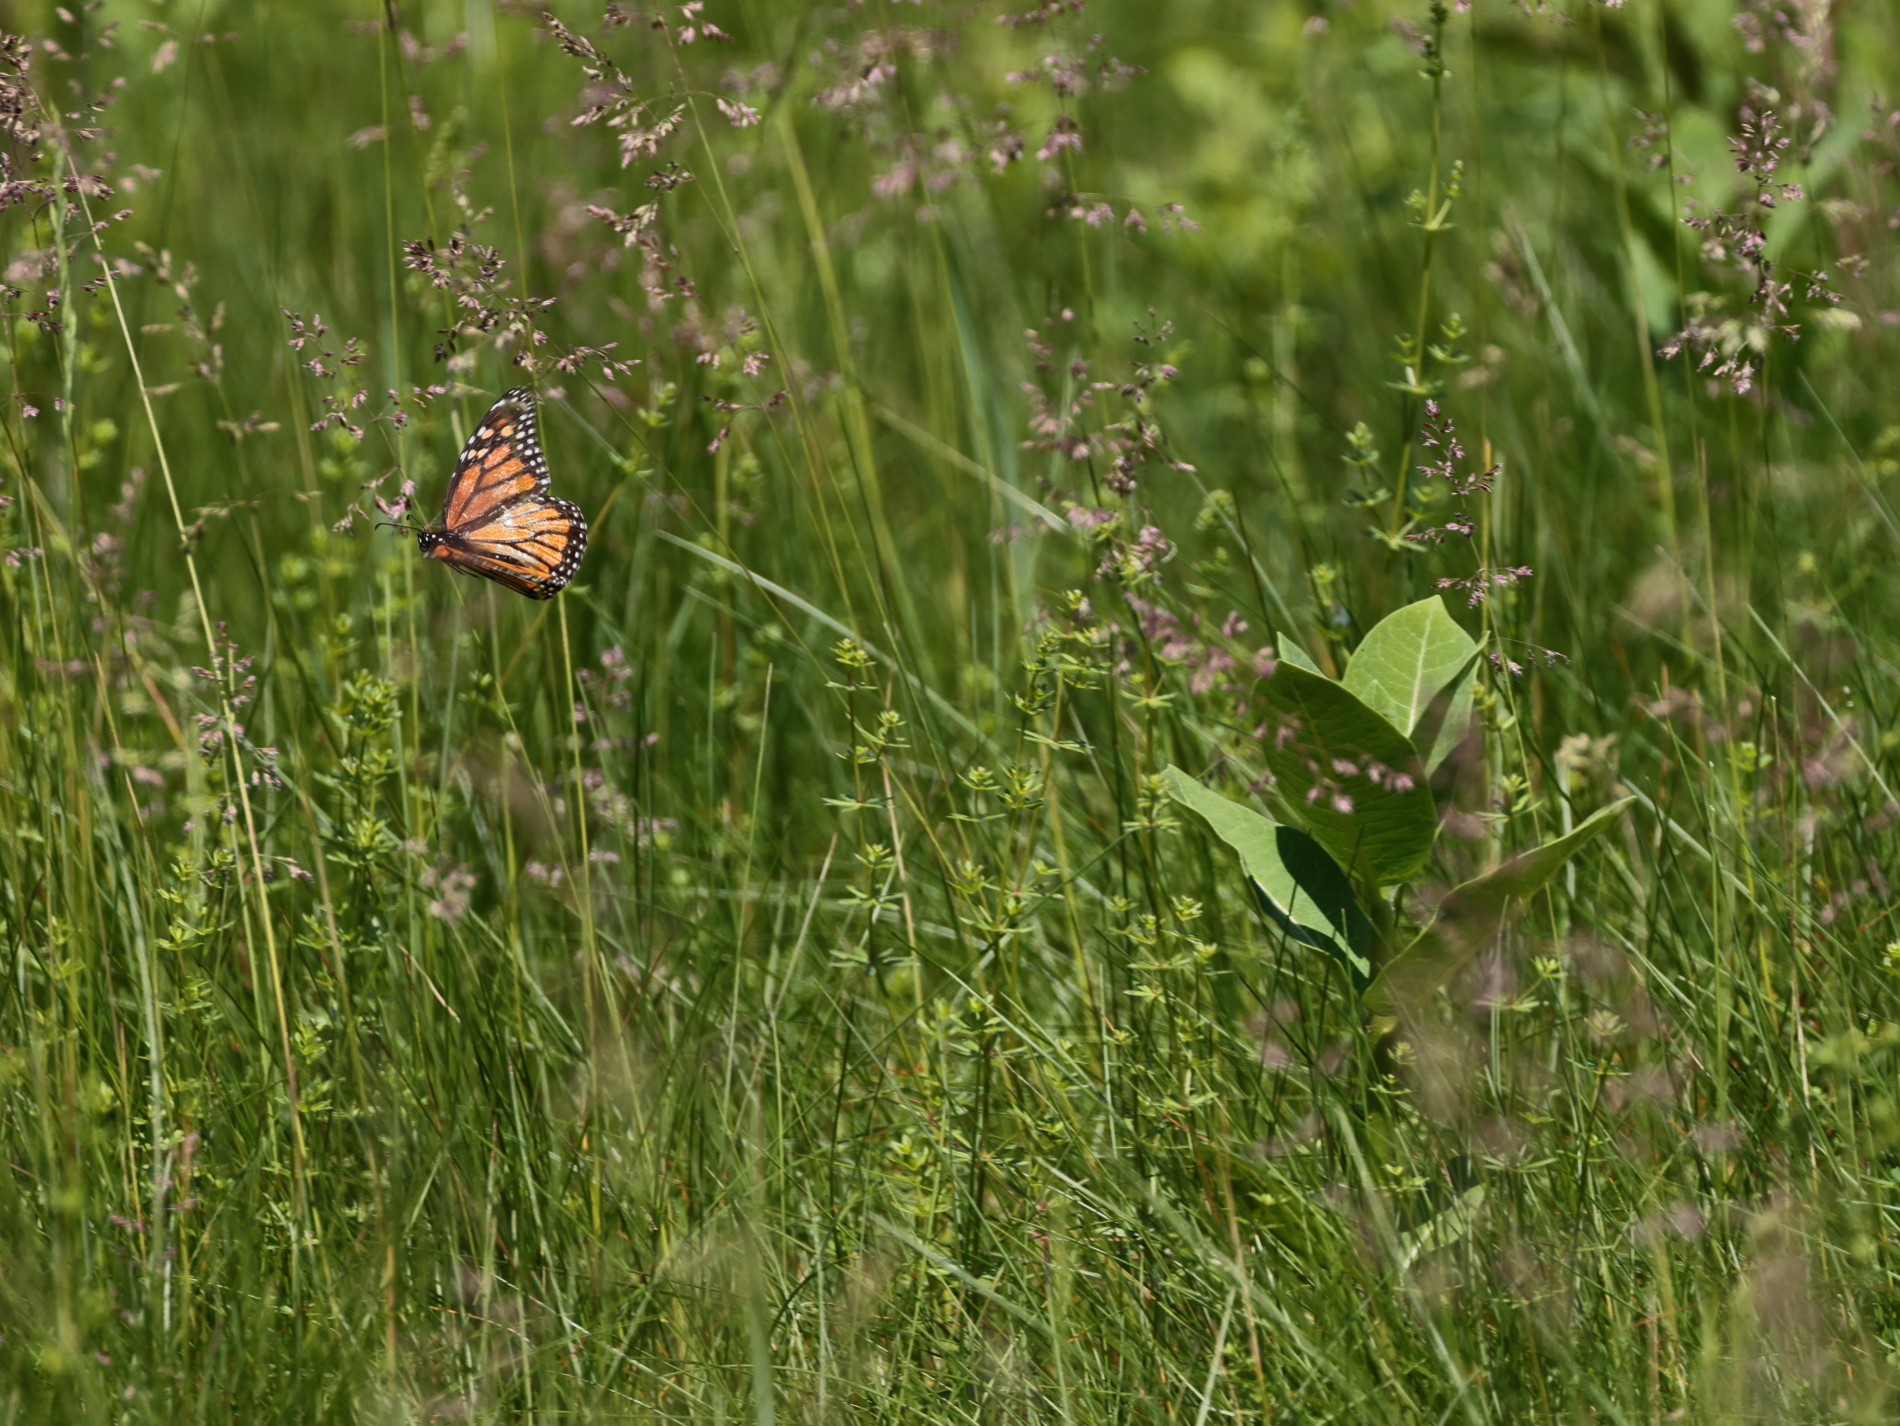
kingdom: Animalia
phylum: Arthropoda
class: Insecta
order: Lepidoptera
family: Nymphalidae
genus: Danaus
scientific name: Danaus plexippus
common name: Monarch
